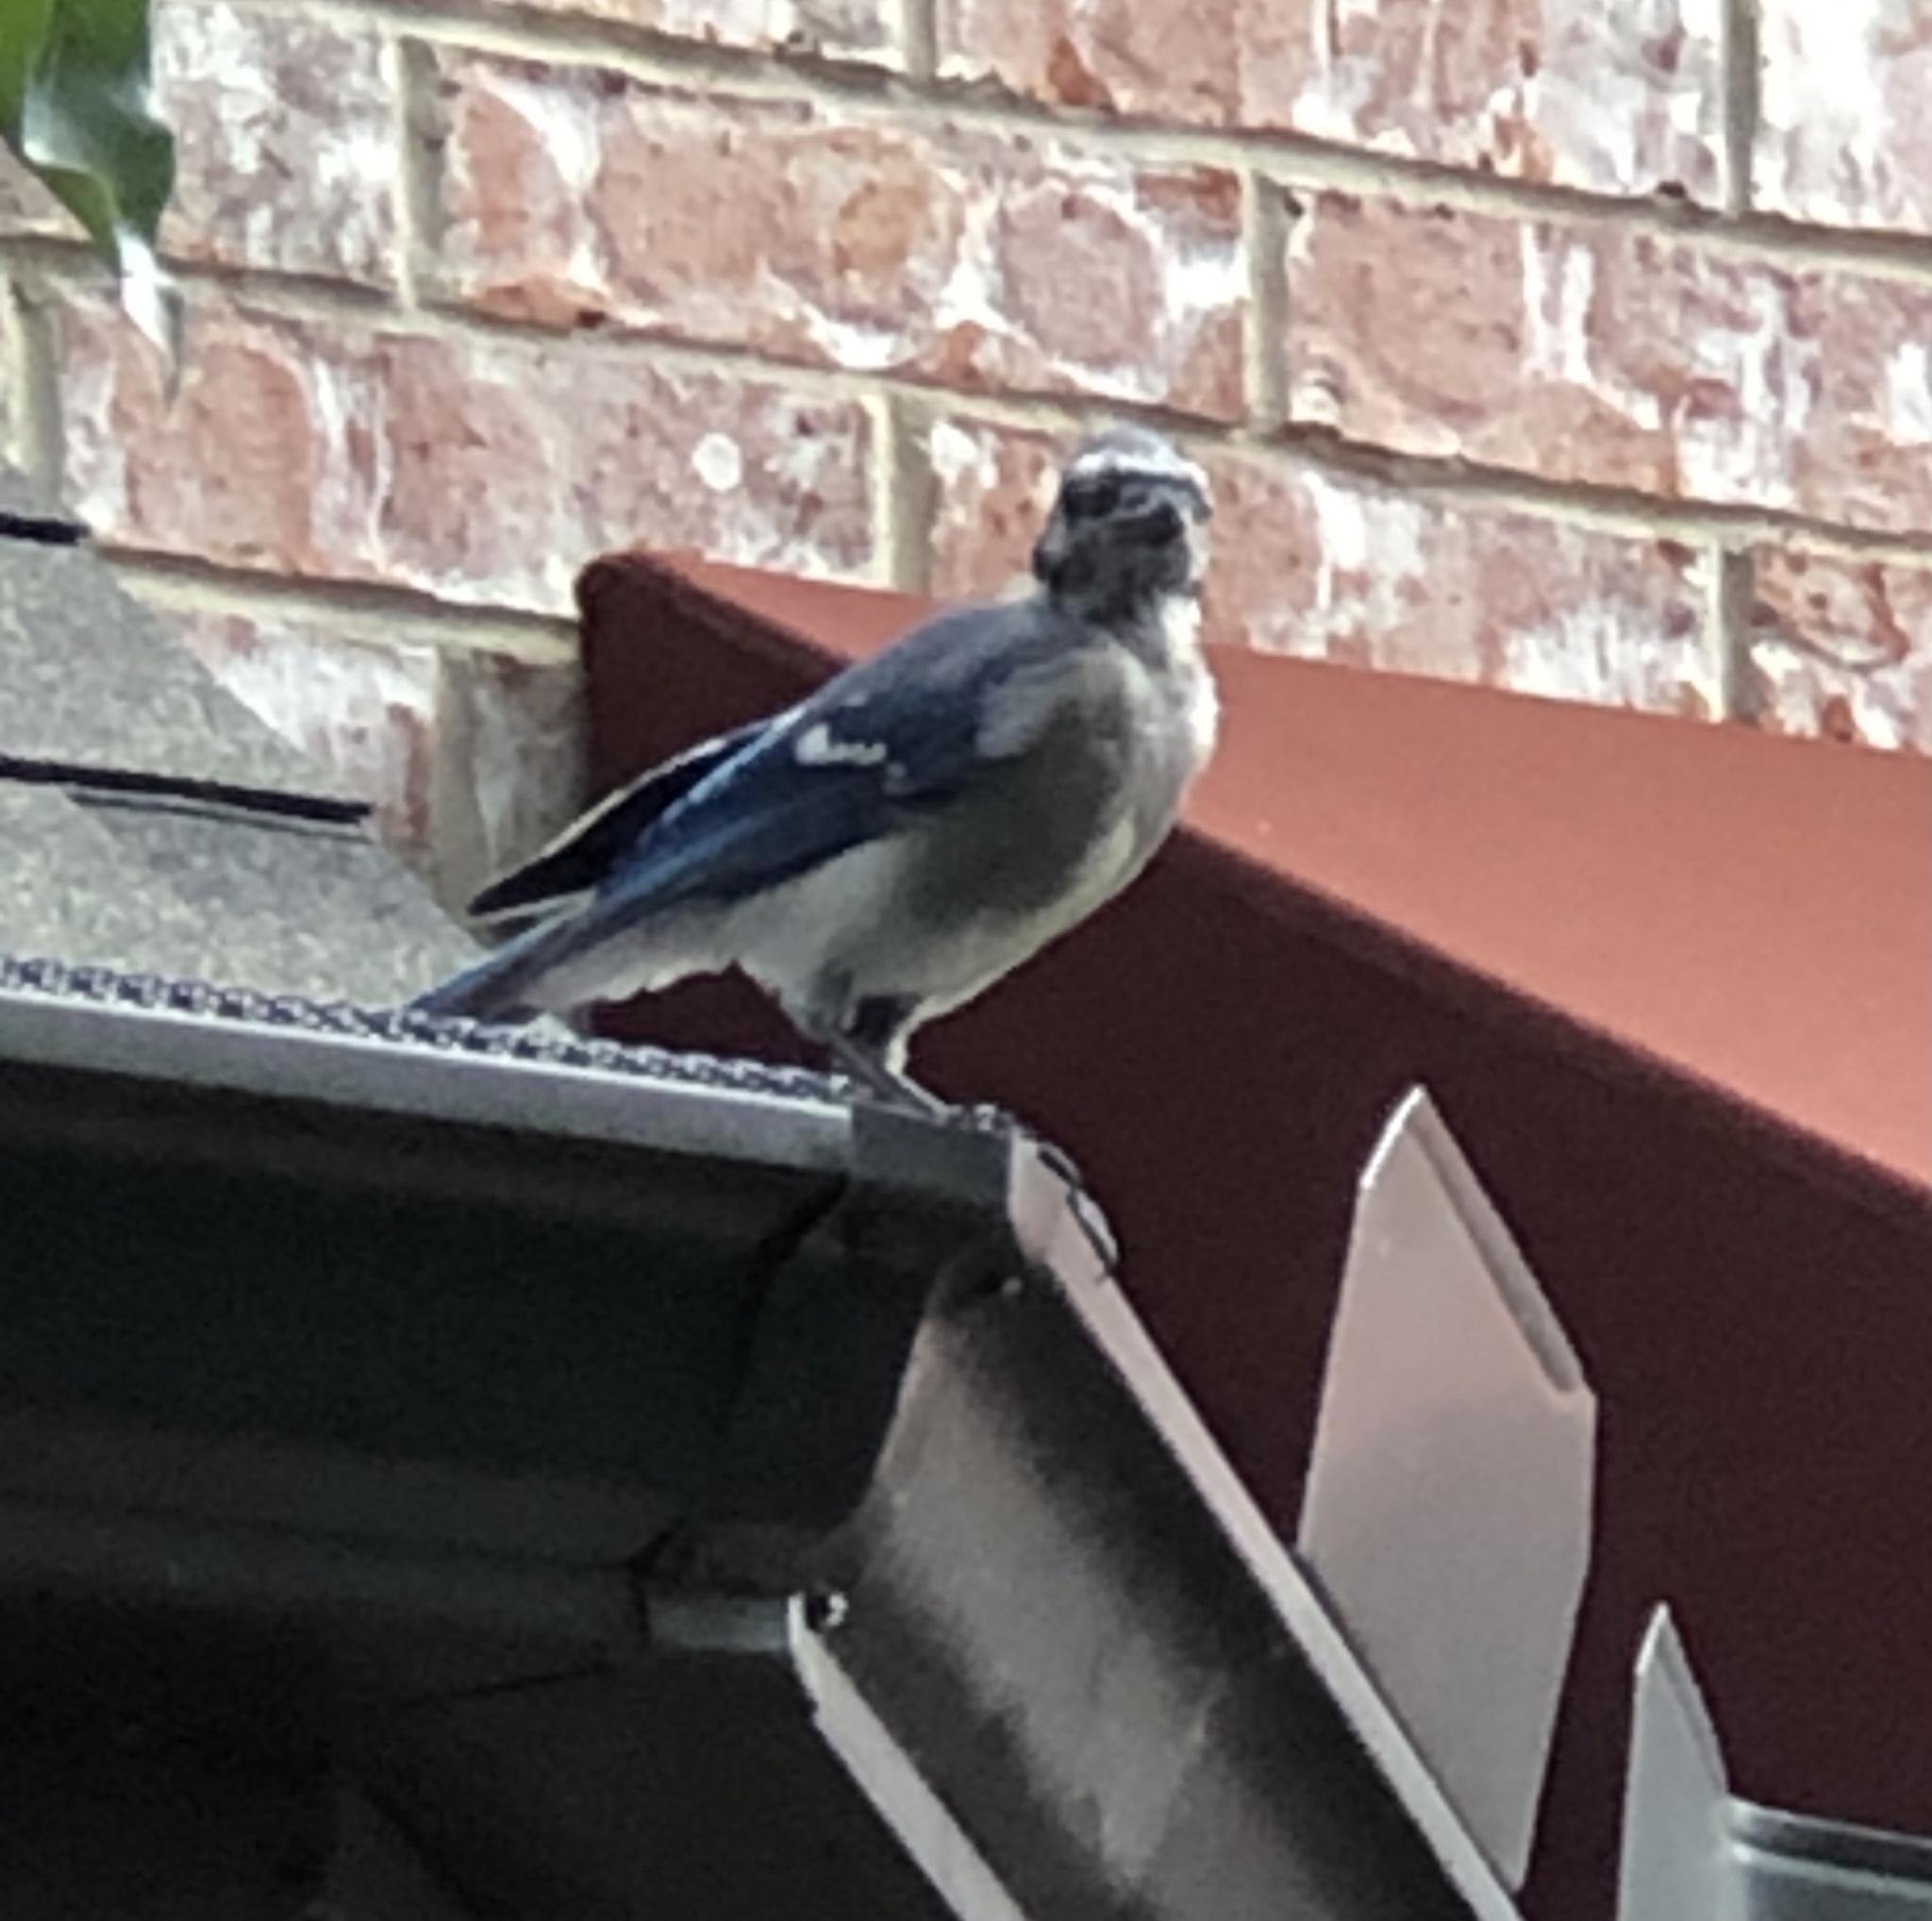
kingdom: Animalia
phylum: Chordata
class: Aves
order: Passeriformes
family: Corvidae
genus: Cyanocitta
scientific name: Cyanocitta cristata
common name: Blue jay
